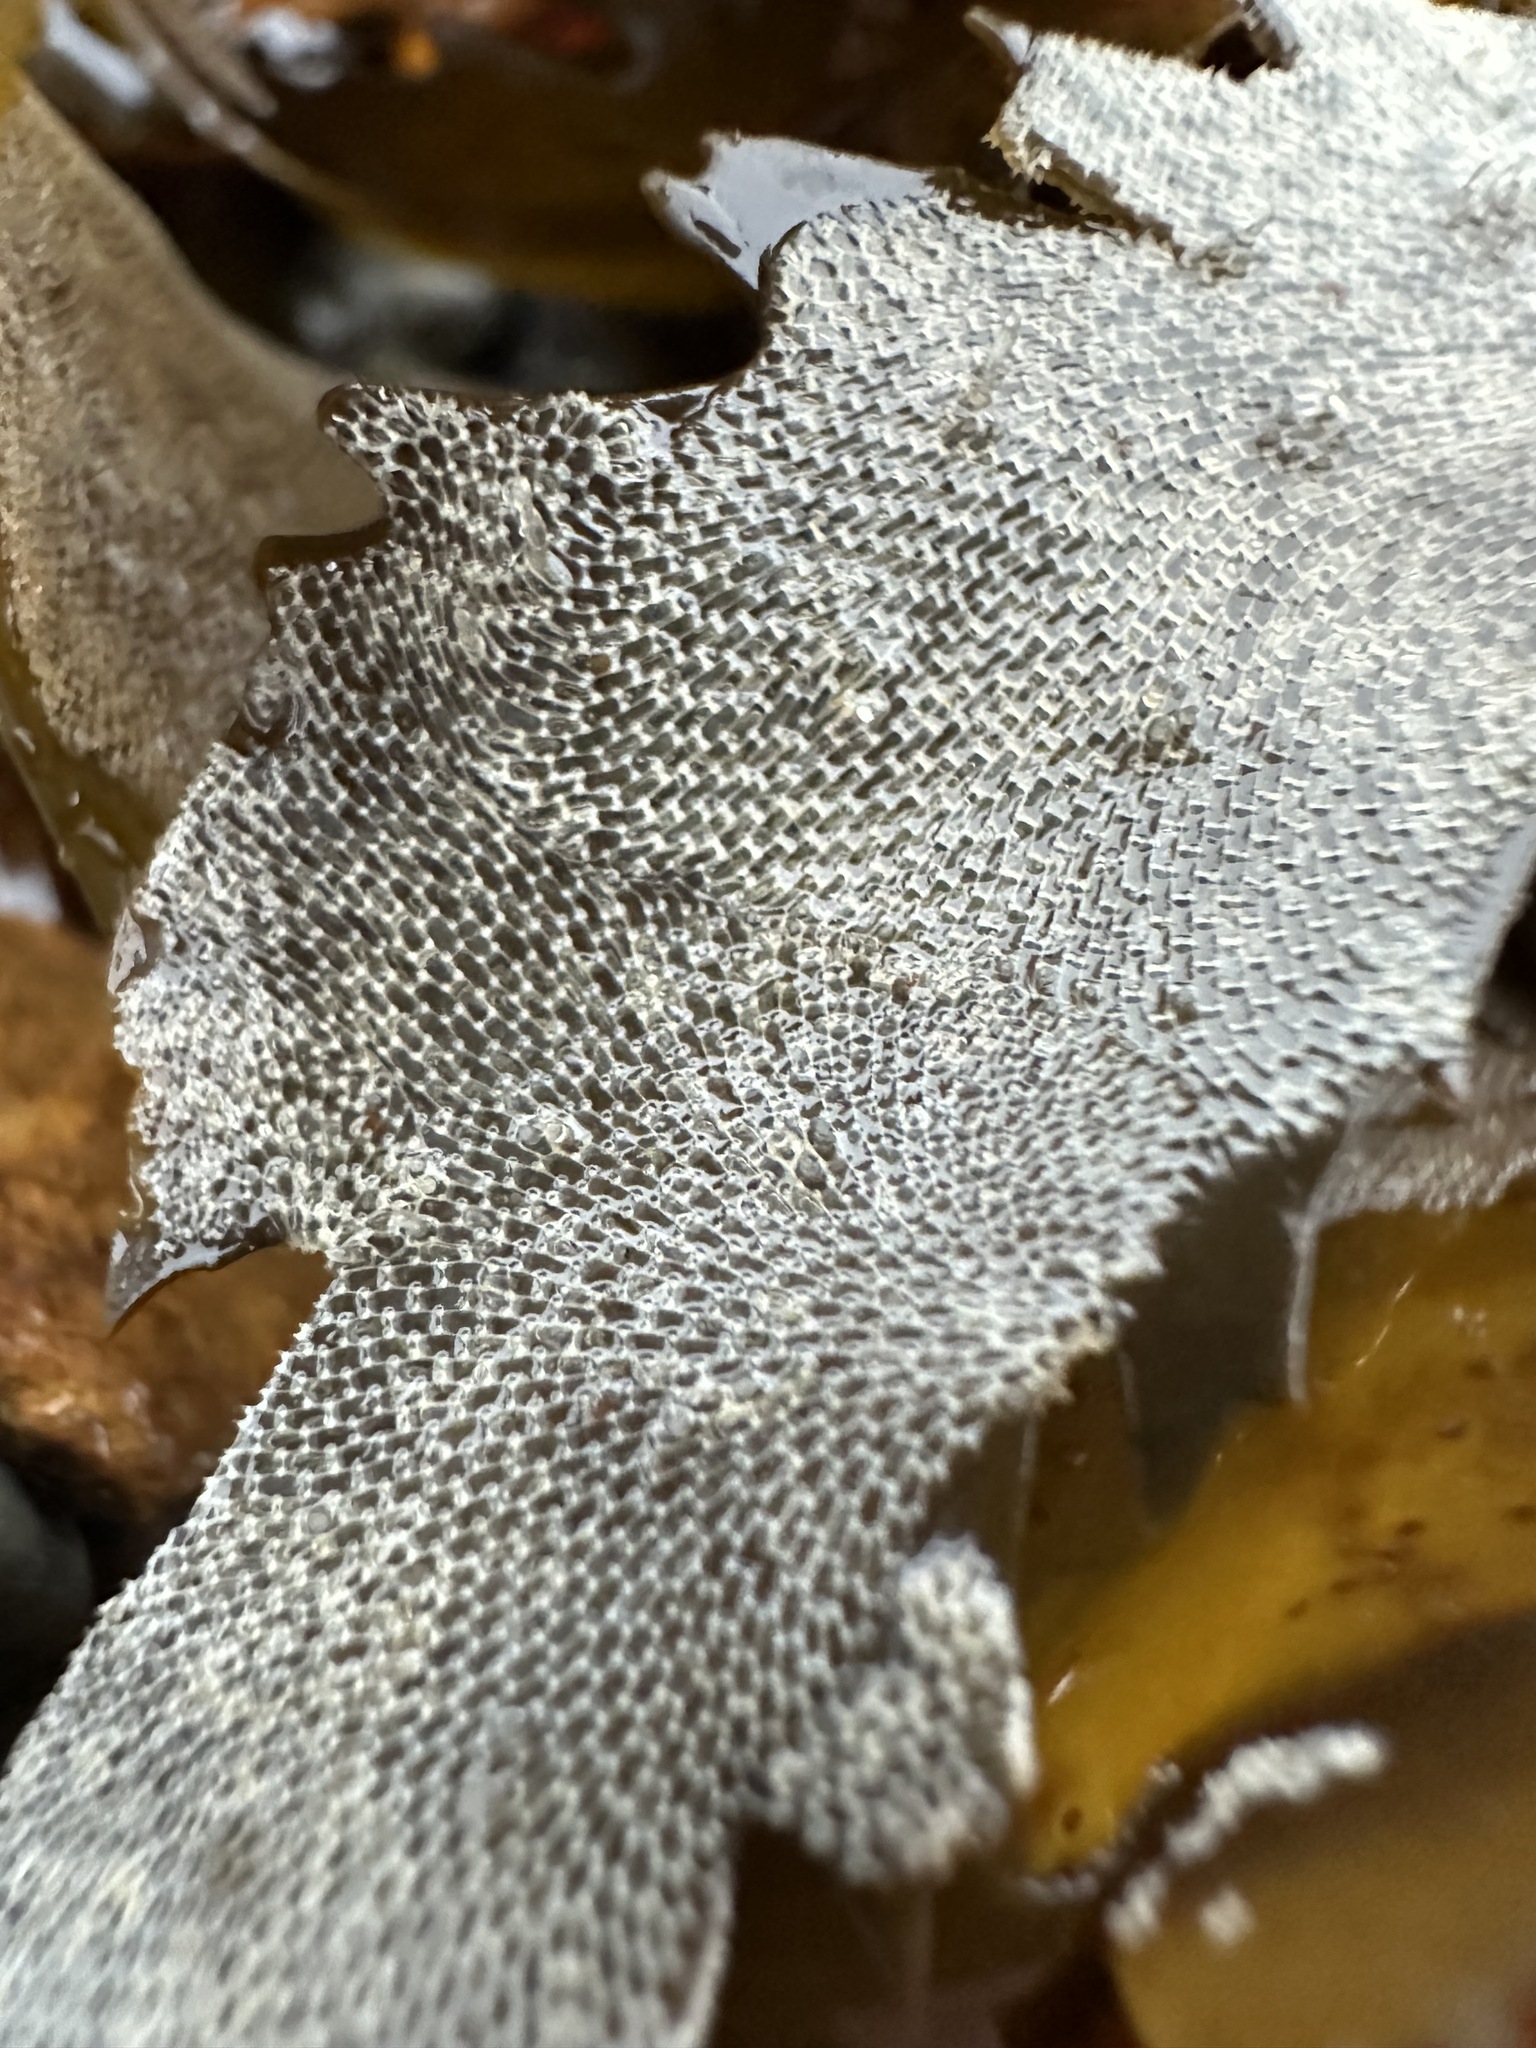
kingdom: Animalia
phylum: Bryozoa
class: Gymnolaemata
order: Cheilostomatida
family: Membraniporidae
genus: Membranipora
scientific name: Membranipora membranacea
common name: Sea mat
